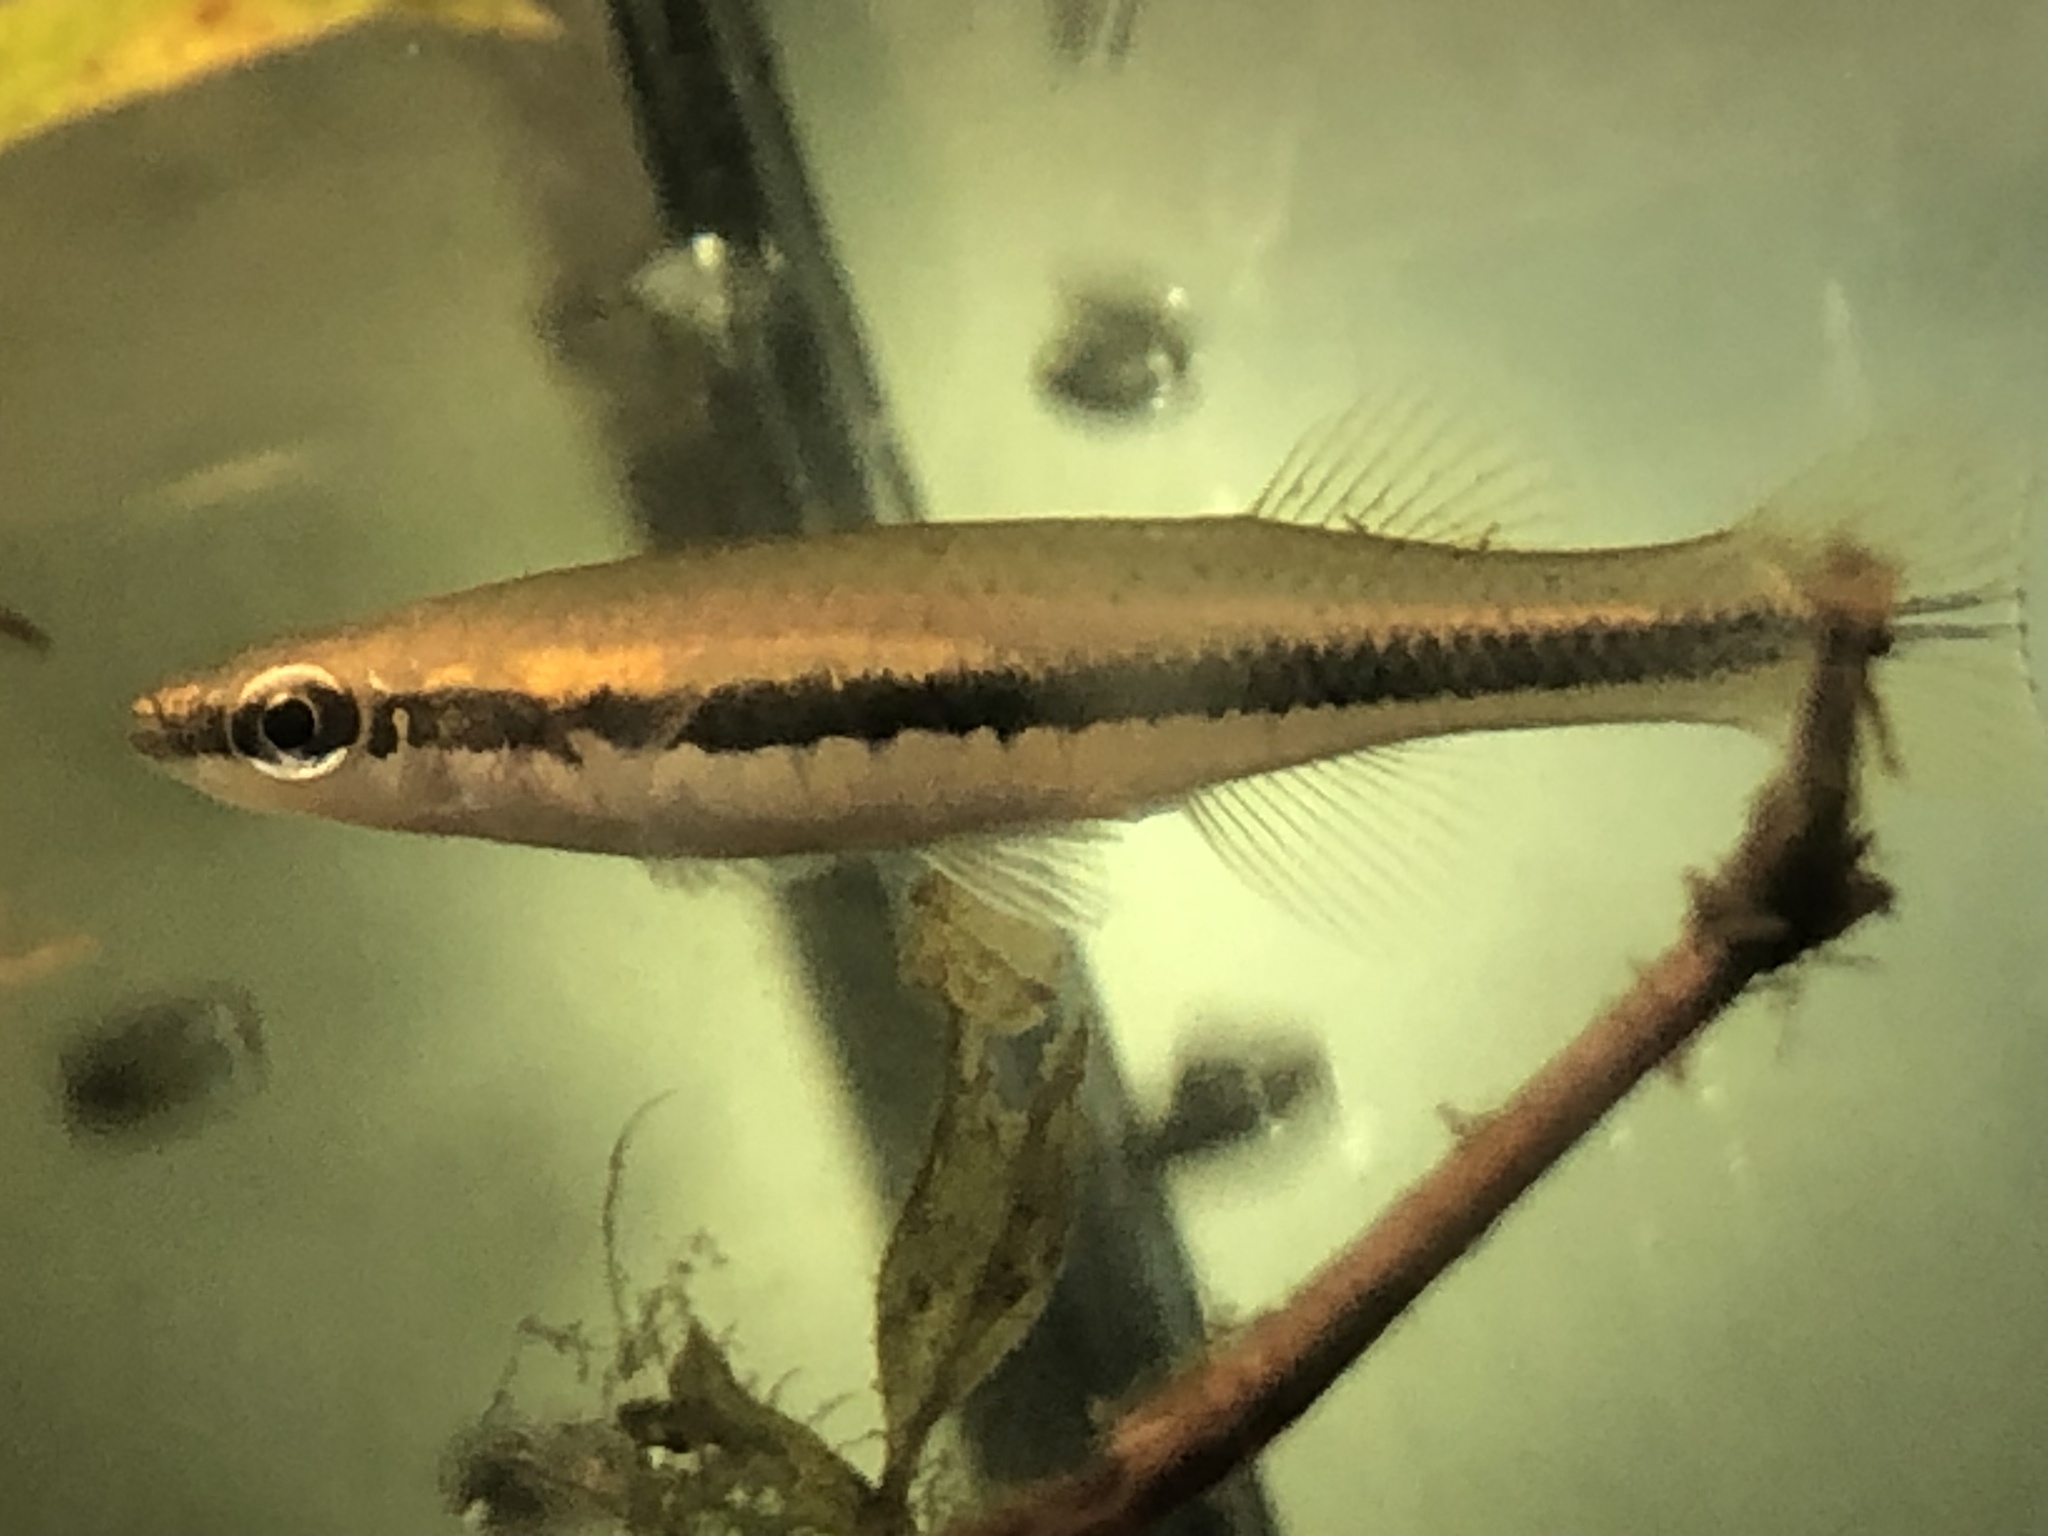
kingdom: Animalia
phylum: Chordata
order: Cyprinodontiformes
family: Fundulidae
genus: Fundulus
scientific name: Fundulus notatus
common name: Blackstripe topminnow
